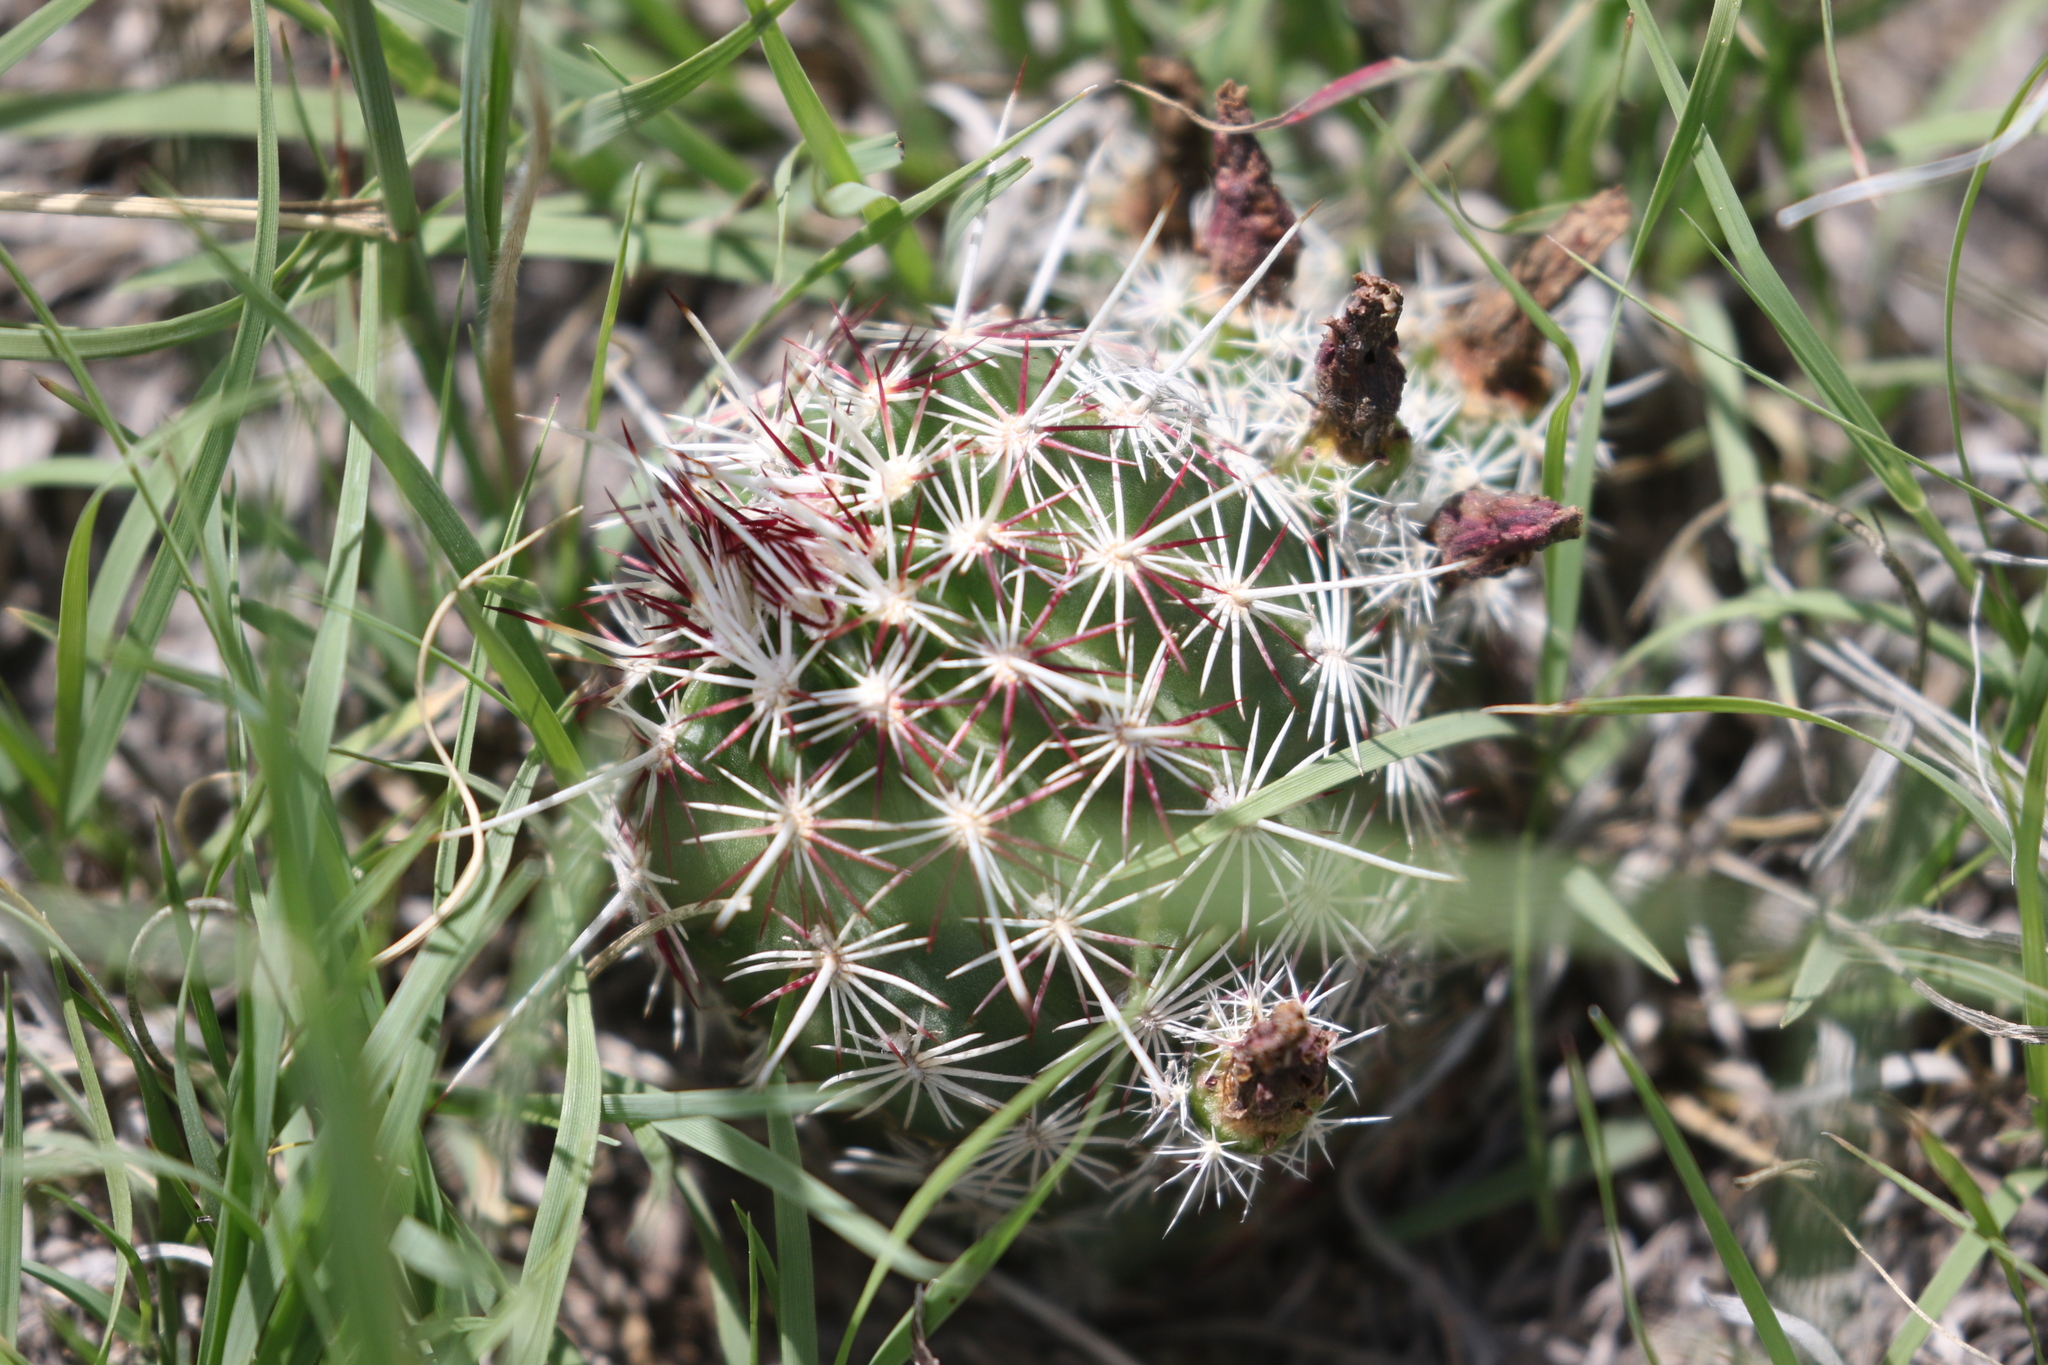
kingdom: Plantae
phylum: Tracheophyta
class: Magnoliopsida
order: Caryophyllales
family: Cactaceae
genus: Echinocereus
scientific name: Echinocereus viridiflorus
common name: Nylon hedgehog cactus
